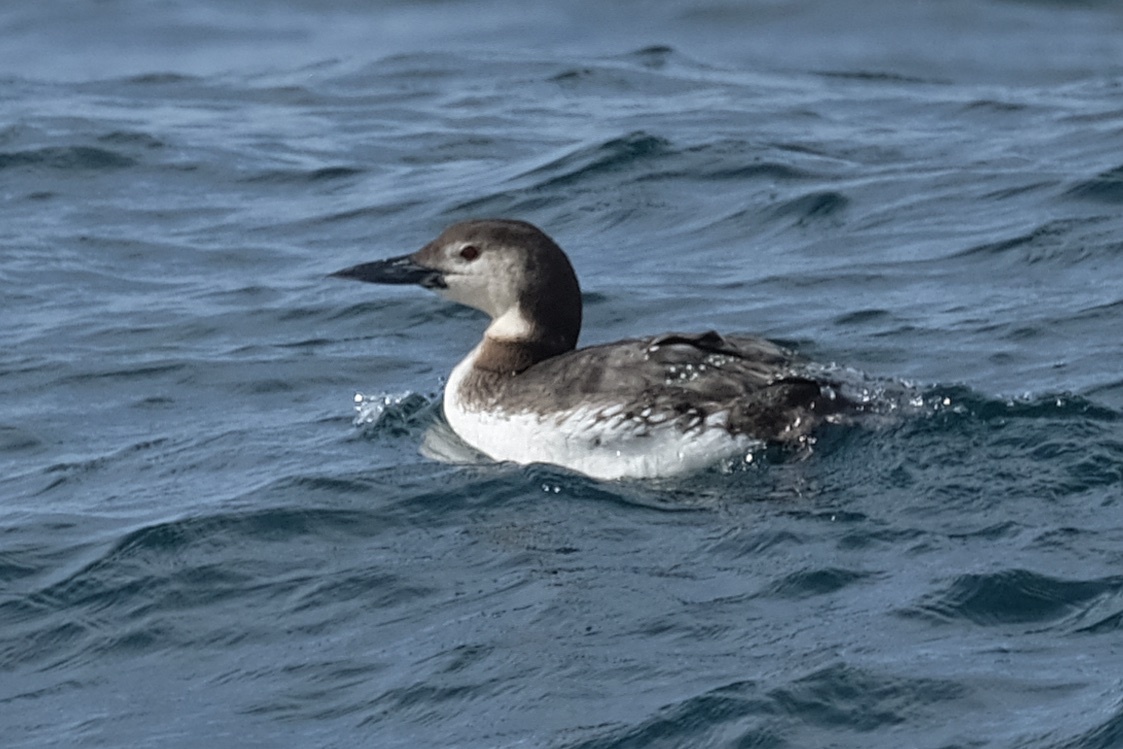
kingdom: Animalia
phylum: Chordata
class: Aves
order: Gaviiformes
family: Gaviidae
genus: Gavia
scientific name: Gavia immer
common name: Common loon
